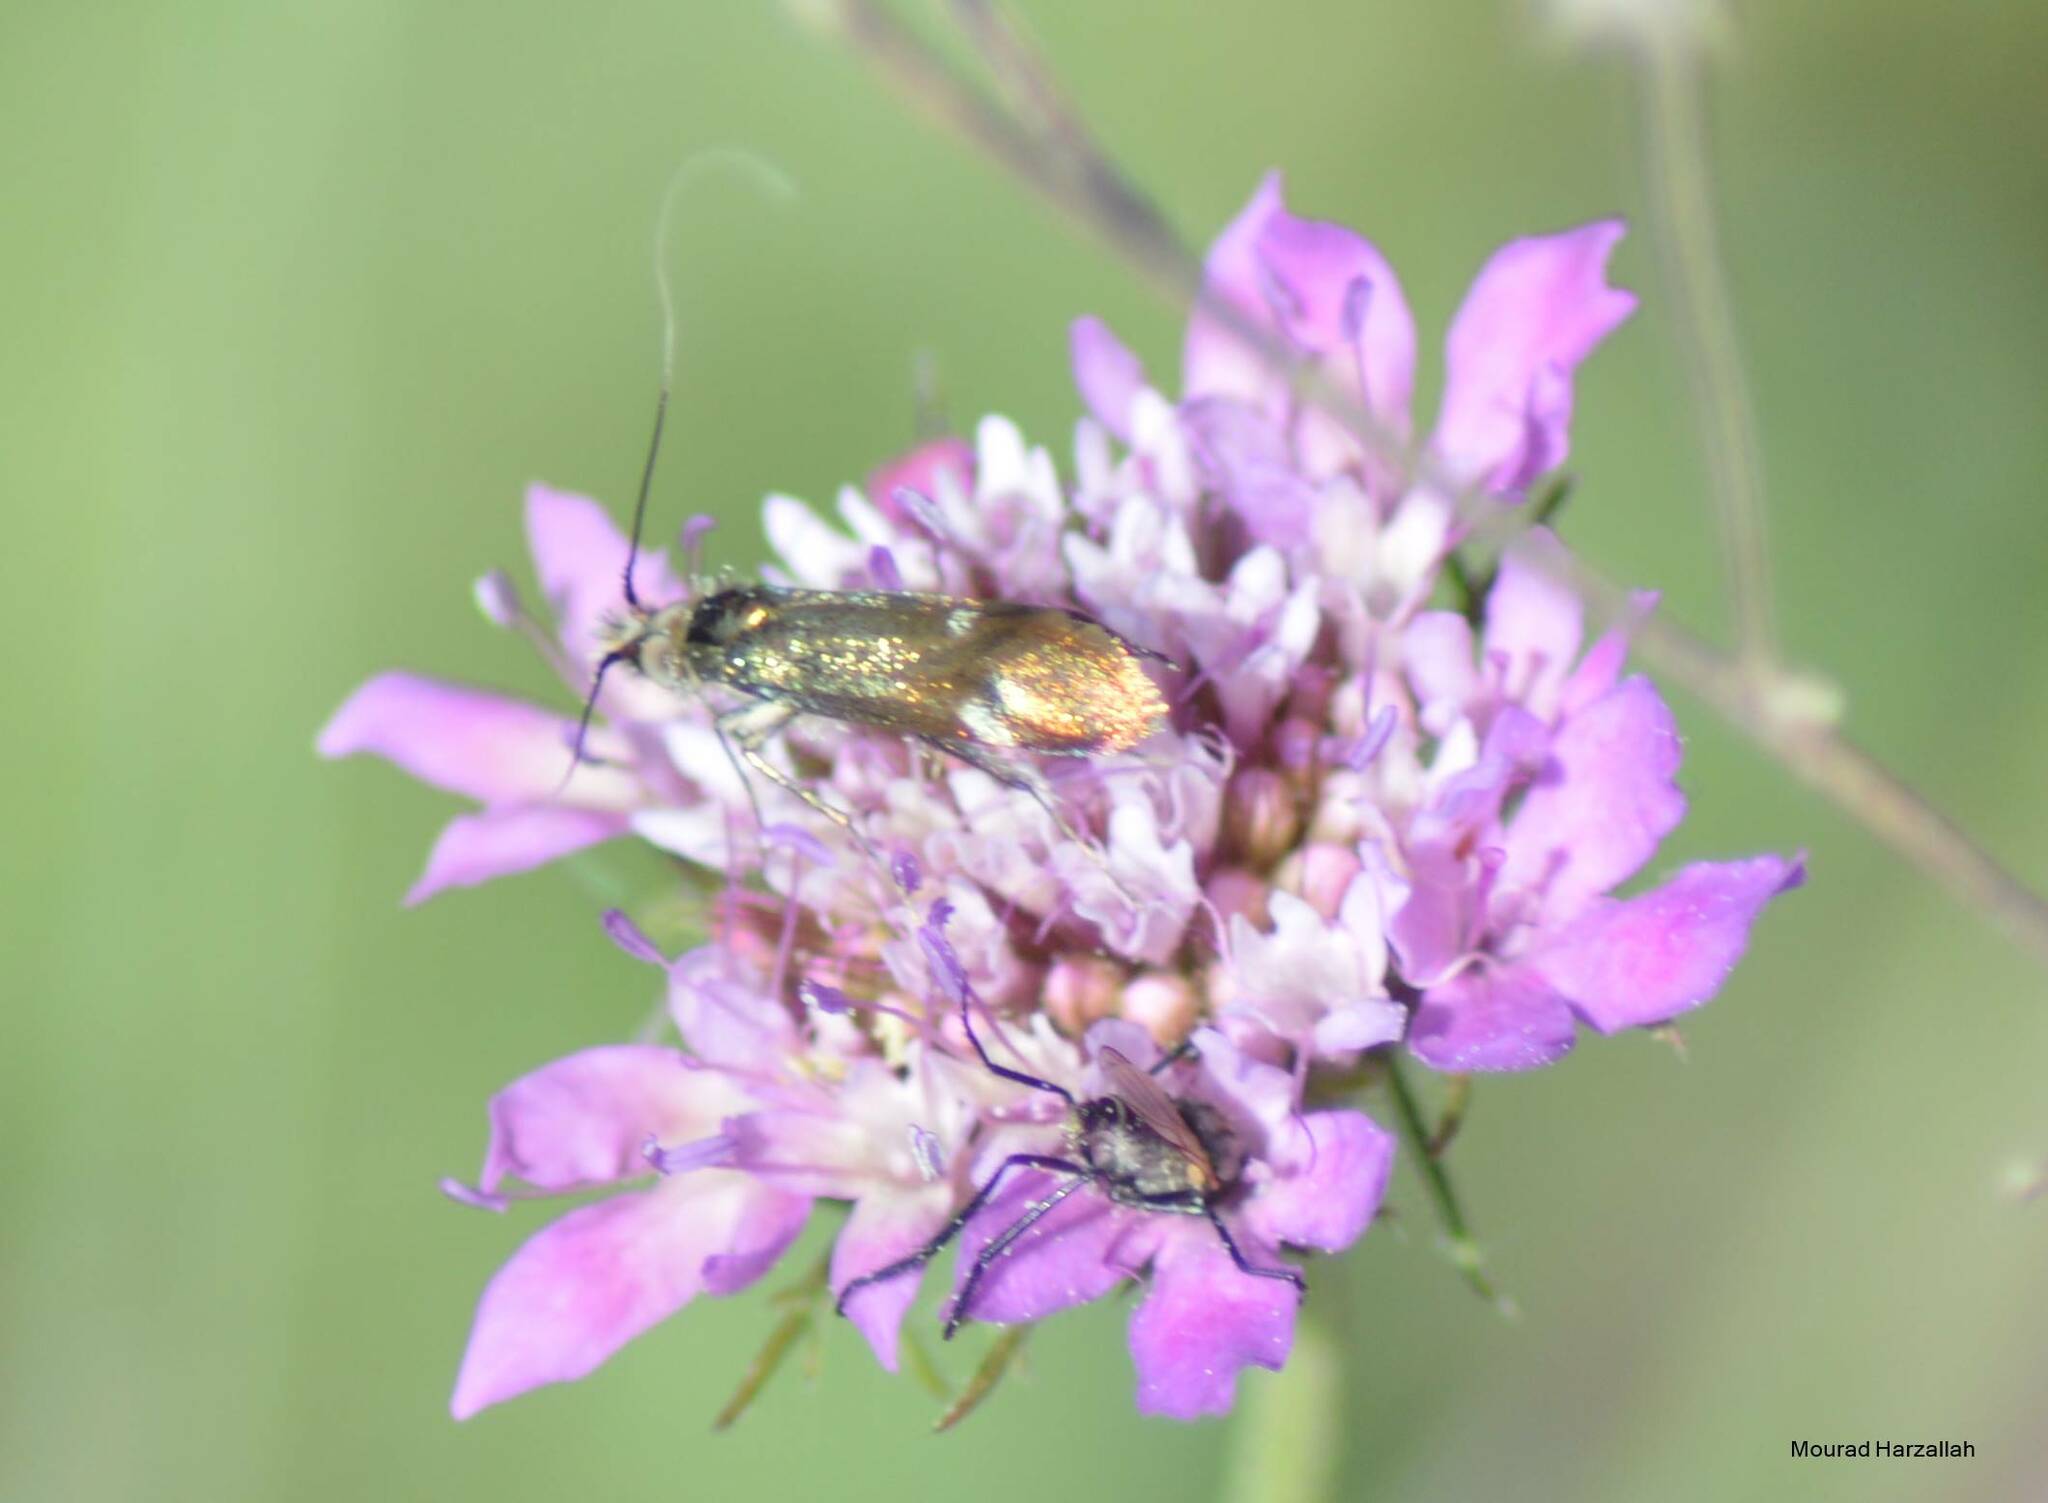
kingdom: Animalia
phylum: Arthropoda
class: Insecta
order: Lepidoptera
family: Adelidae
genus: Nemophora
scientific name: Nemophora raddaella
